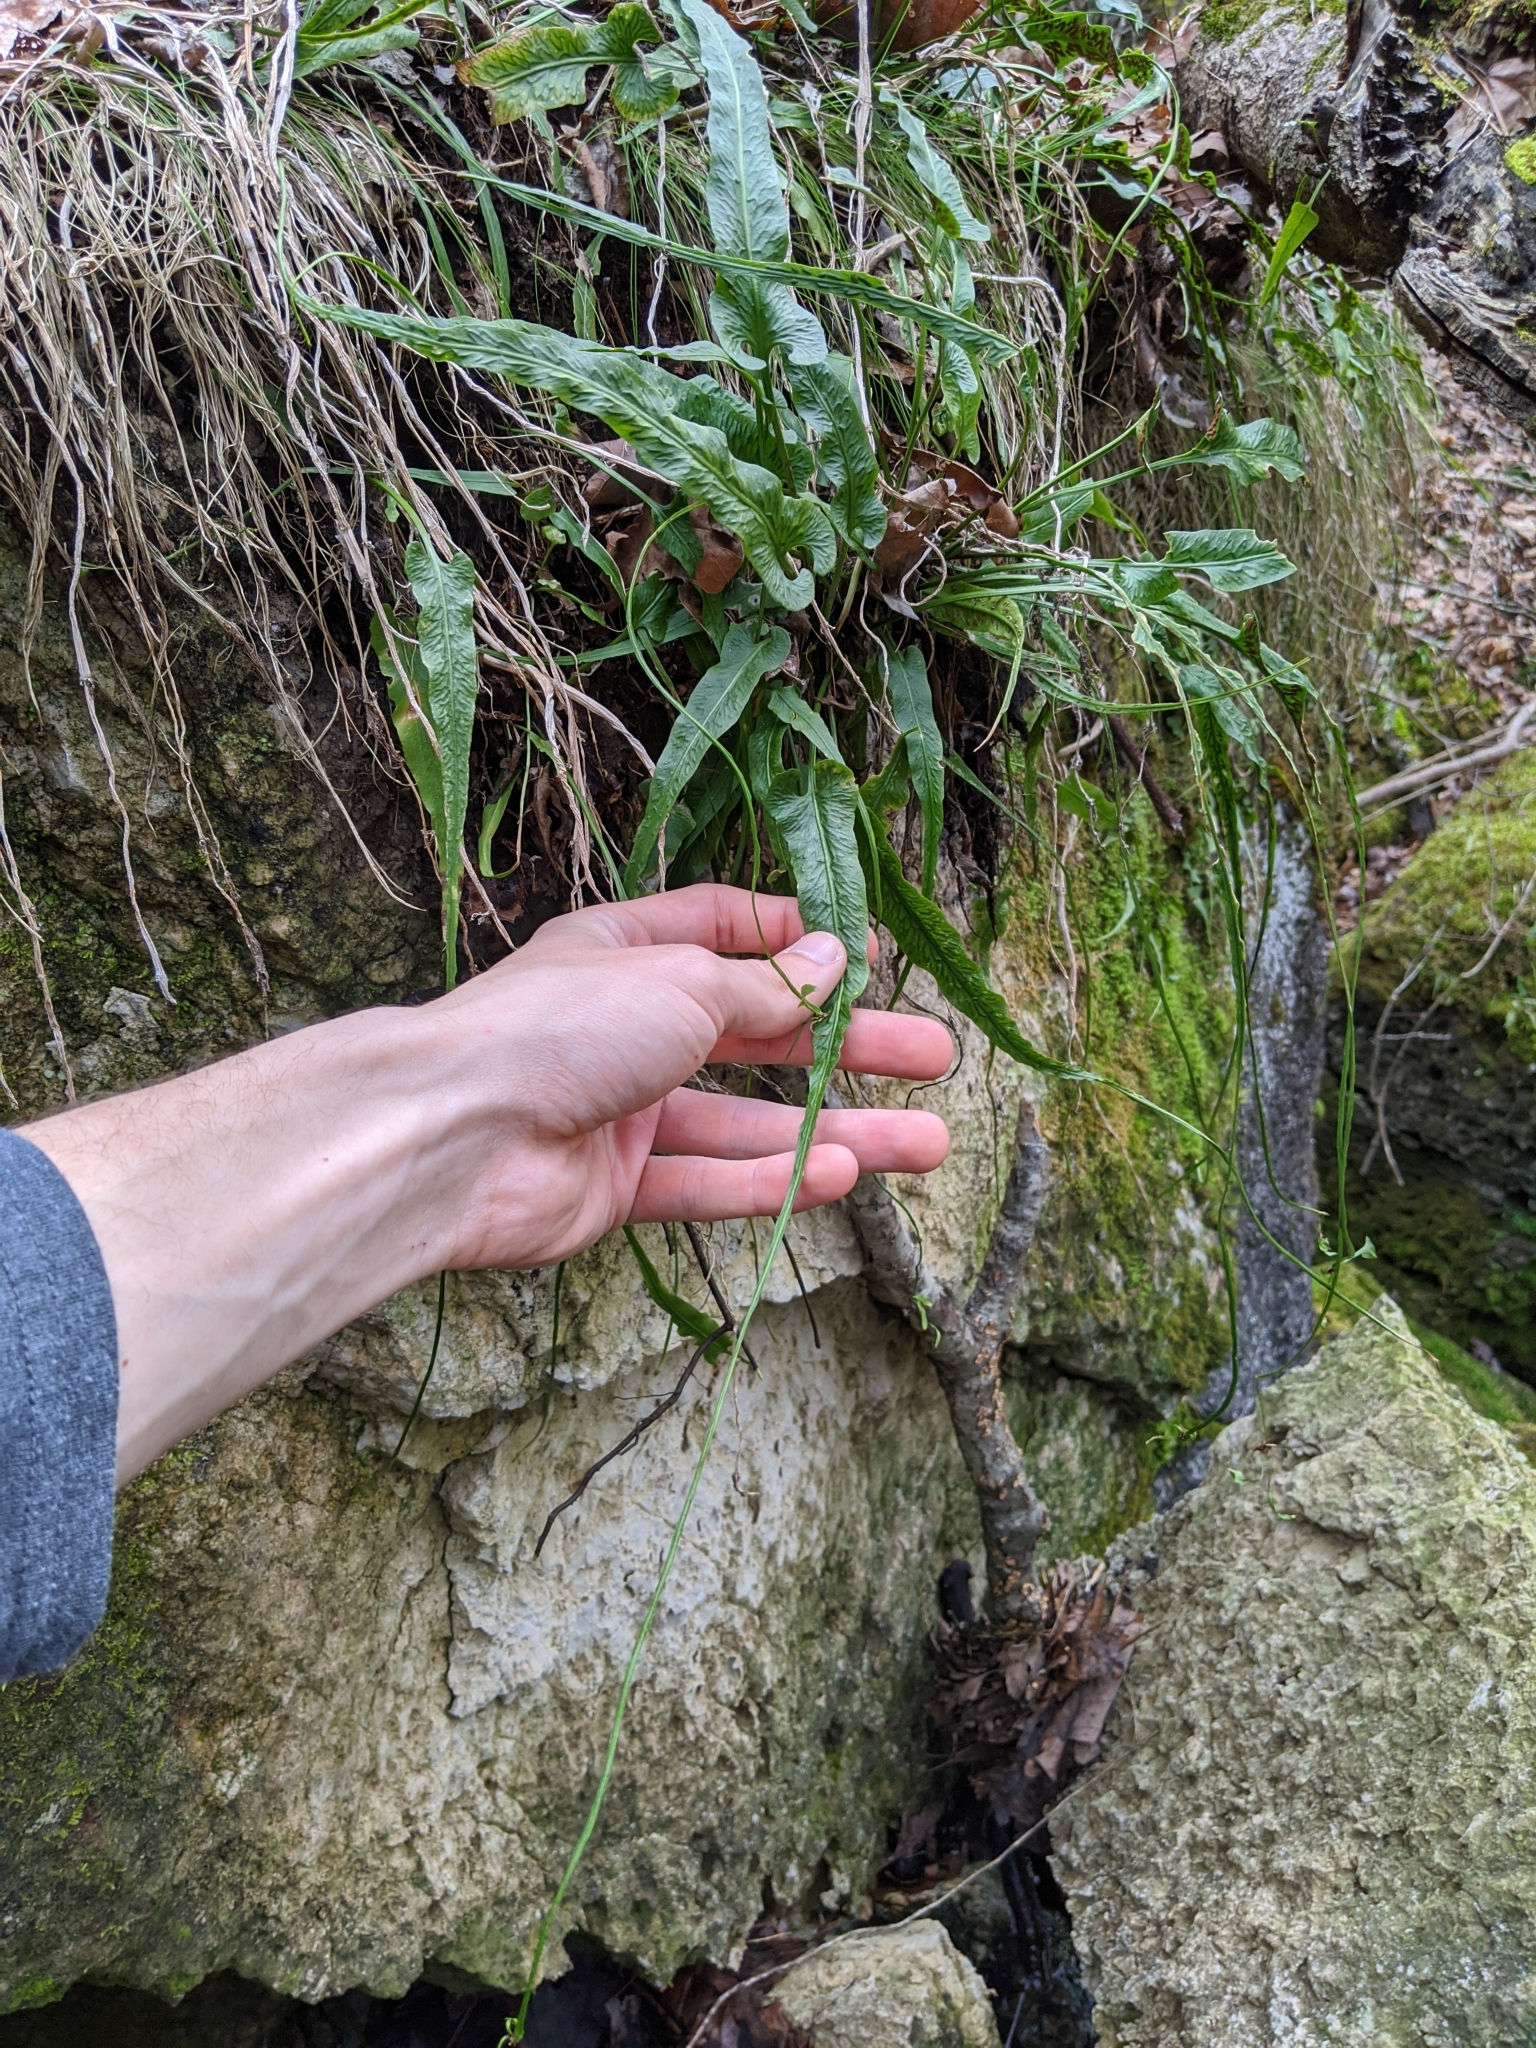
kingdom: Plantae
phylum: Tracheophyta
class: Polypodiopsida
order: Polypodiales
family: Aspleniaceae
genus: Asplenium
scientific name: Asplenium rhizophyllum
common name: Walking fern
